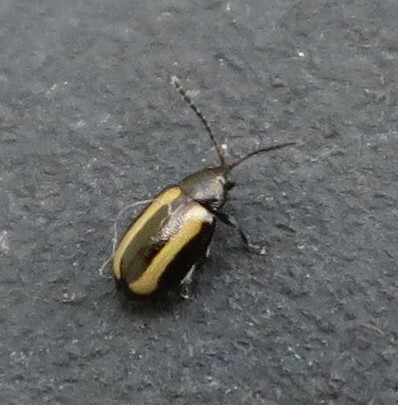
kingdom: Animalia
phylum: Arthropoda
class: Insecta
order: Coleoptera
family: Chrysomelidae
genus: Phyllotreta
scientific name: Phyllotreta undulata
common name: Turnip flea beetle
